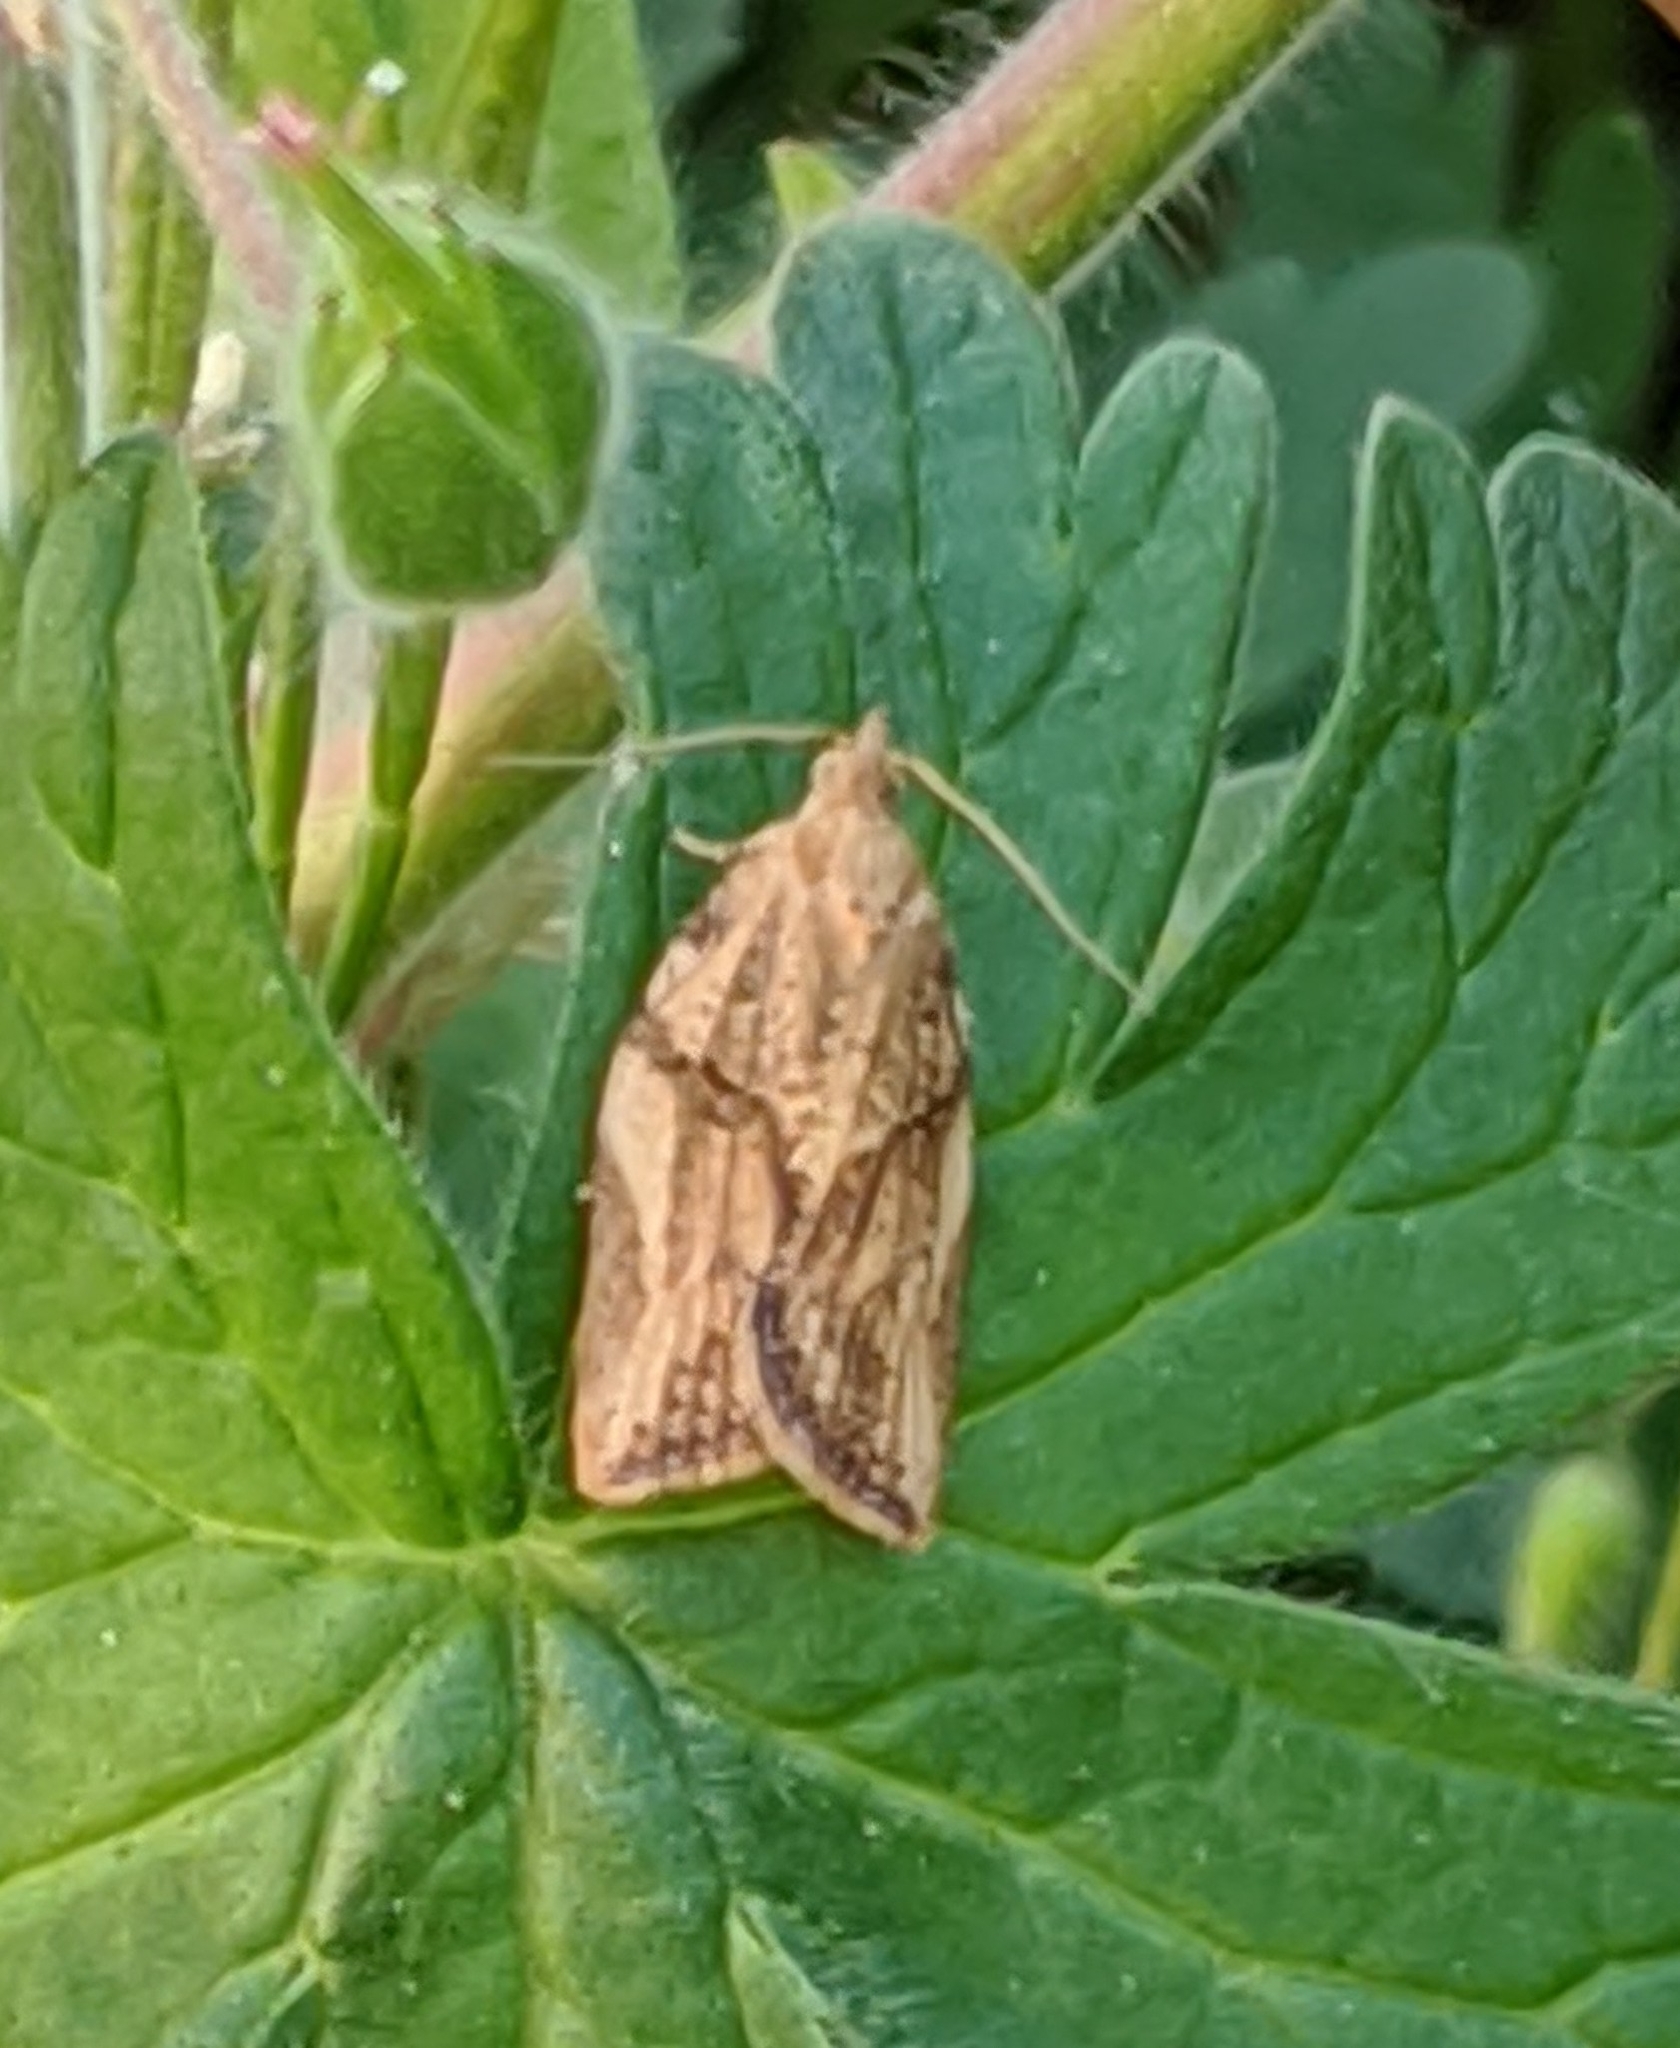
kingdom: Animalia
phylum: Arthropoda
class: Insecta
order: Lepidoptera
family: Tortricidae
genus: Epiphyas
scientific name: Epiphyas postvittana
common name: Light brown apple moth
